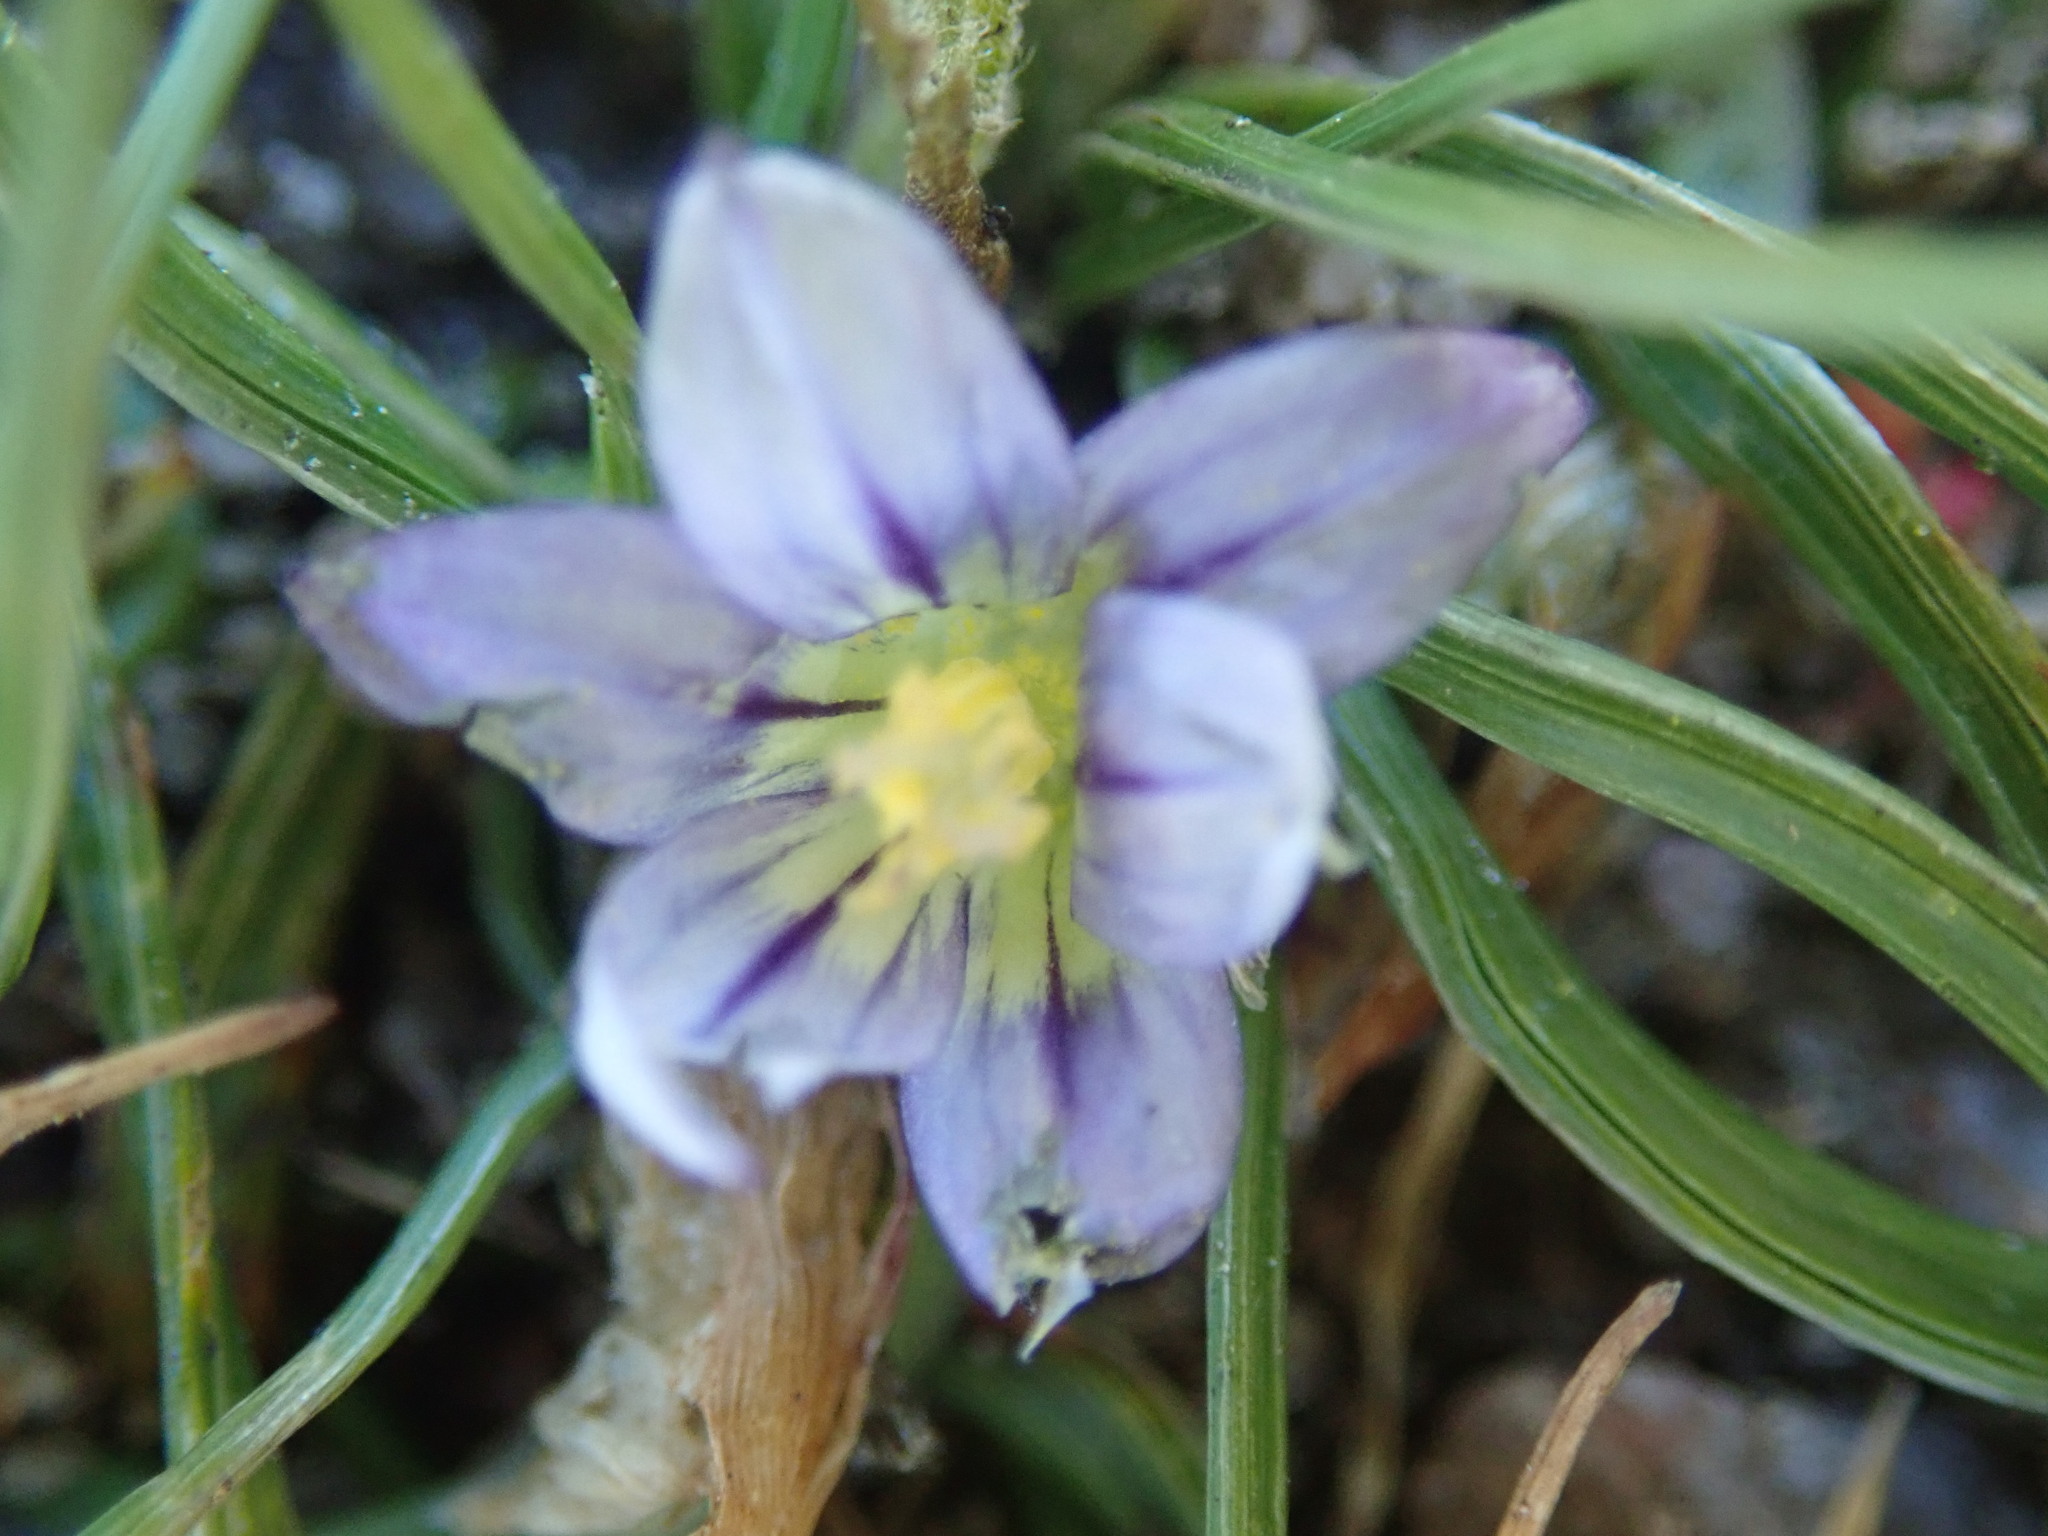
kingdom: Plantae
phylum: Tracheophyta
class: Liliopsida
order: Asparagales
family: Iridaceae
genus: Romulea
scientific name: Romulea columnae
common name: Sand-crocus
